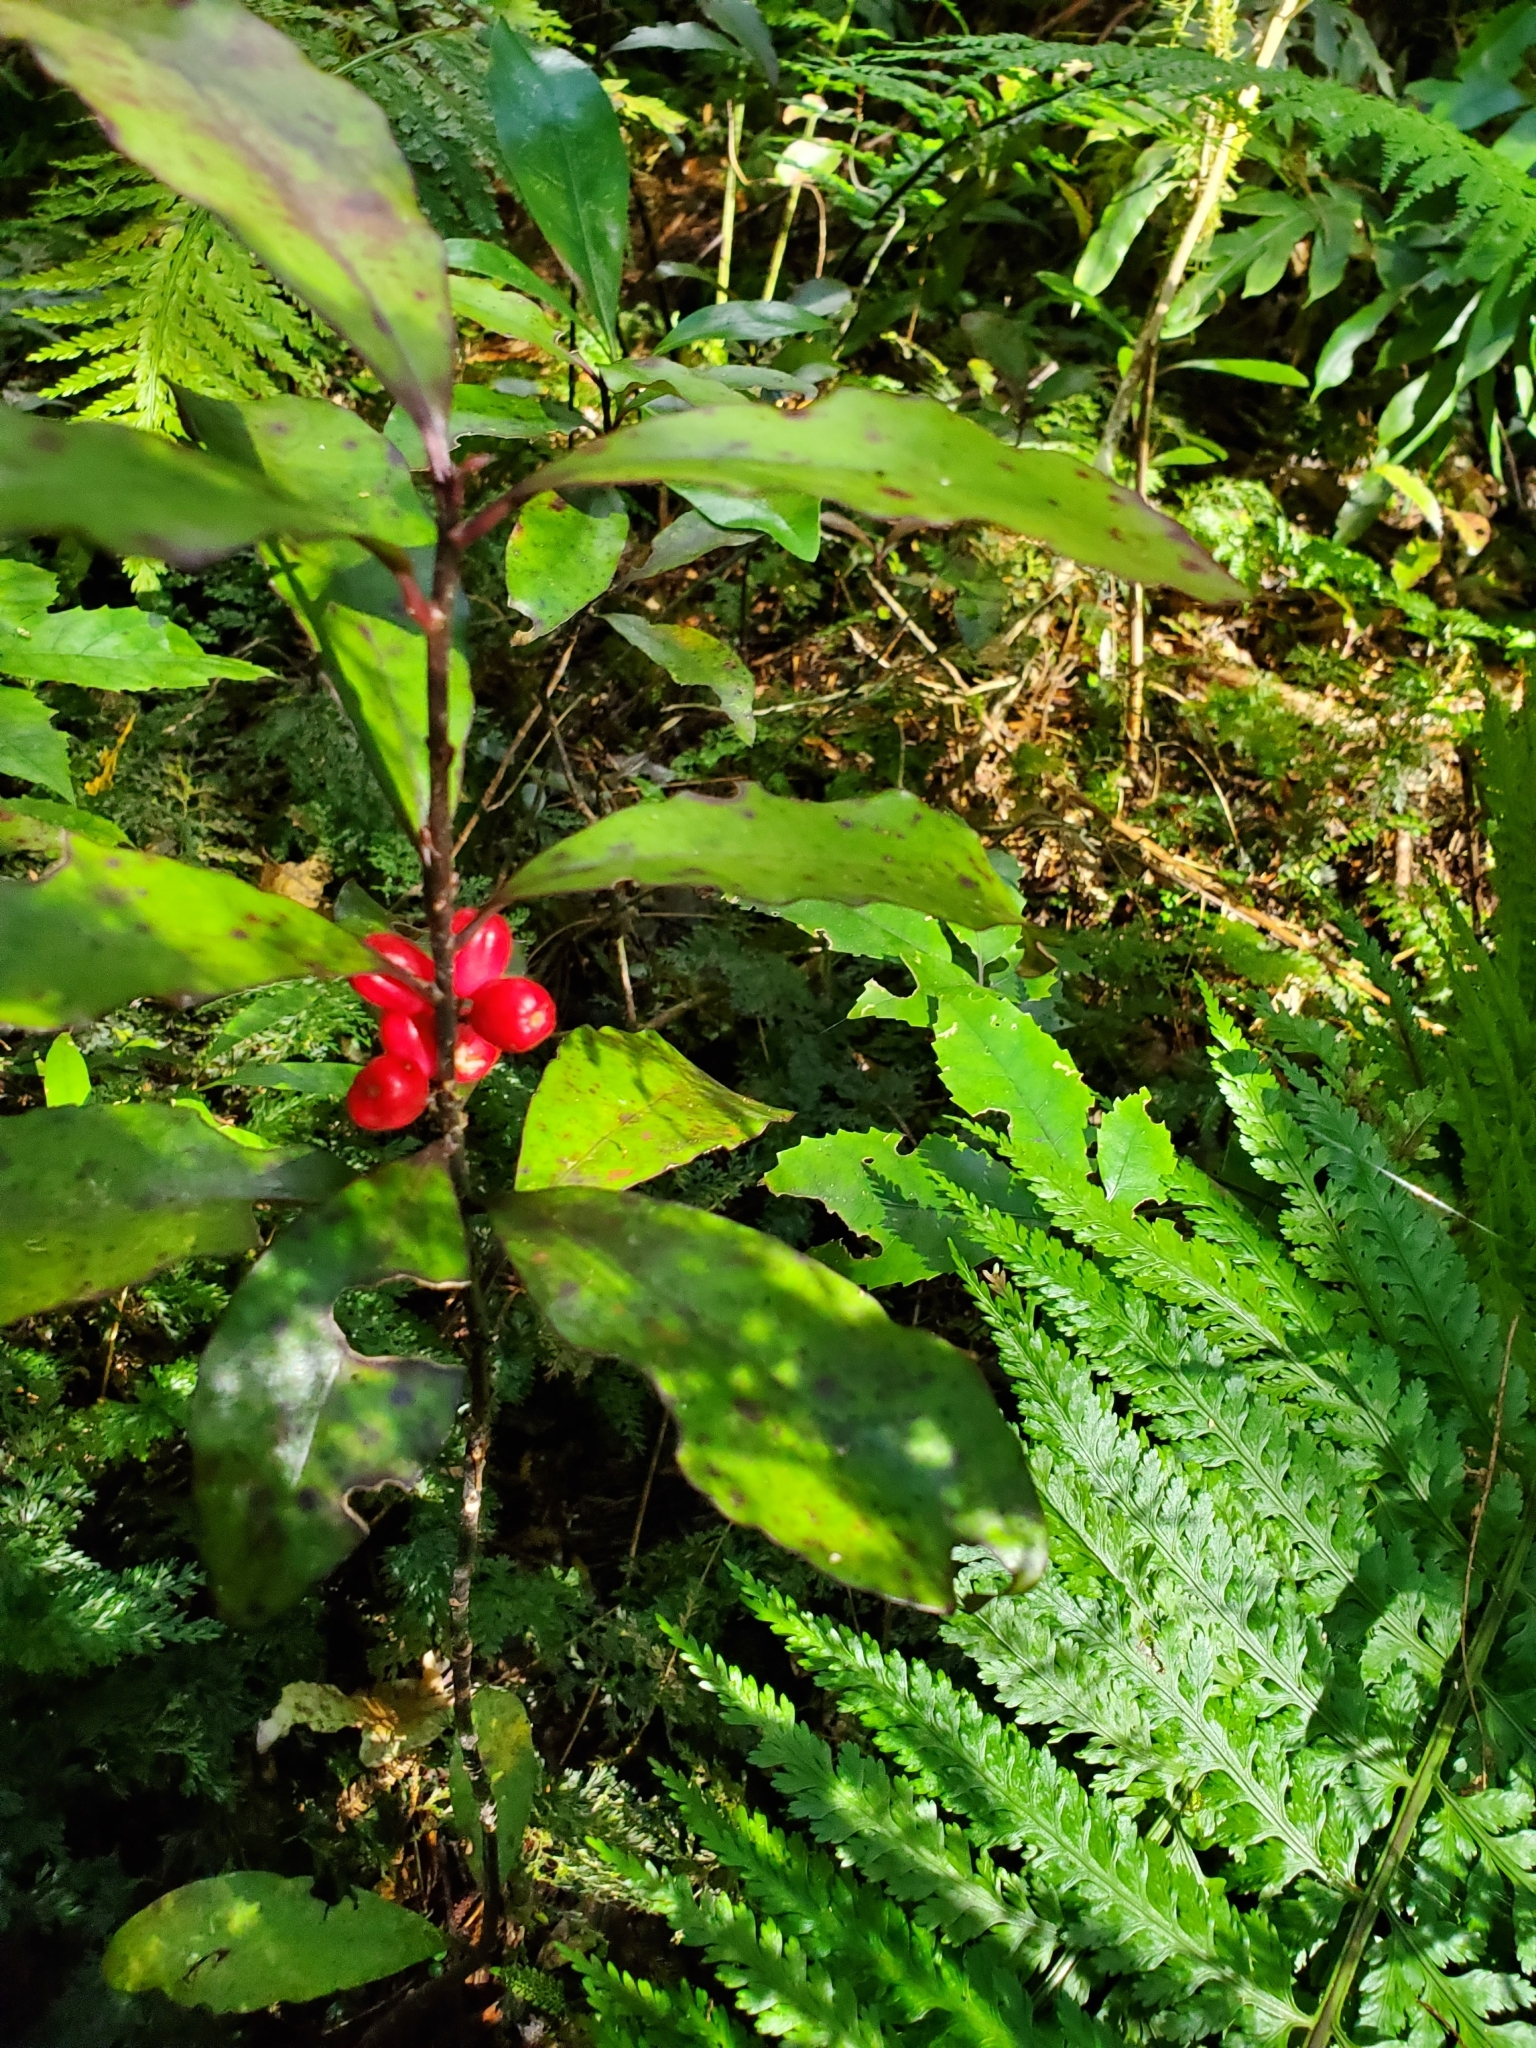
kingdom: Plantae
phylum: Tracheophyta
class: Magnoliopsida
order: Asterales
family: Alseuosmiaceae
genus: Alseuosmia
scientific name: Alseuosmia pusilla
